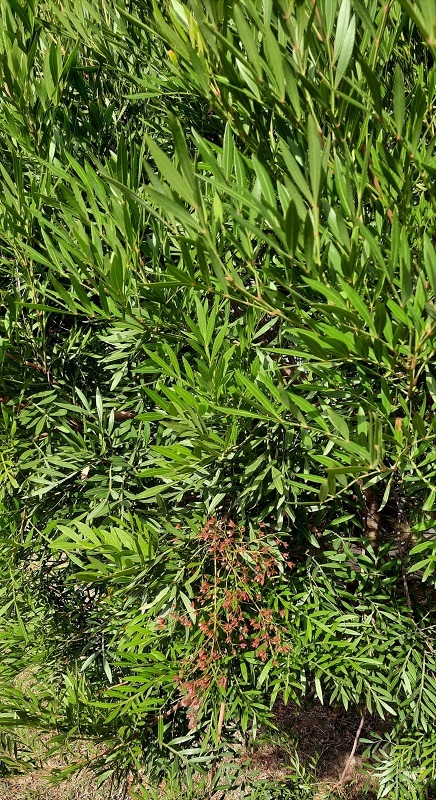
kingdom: Plantae
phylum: Tracheophyta
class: Magnoliopsida
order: Sapindales
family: Anacardiaceae
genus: Loxostylis
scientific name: Loxostylis alata
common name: Wild peppertree
